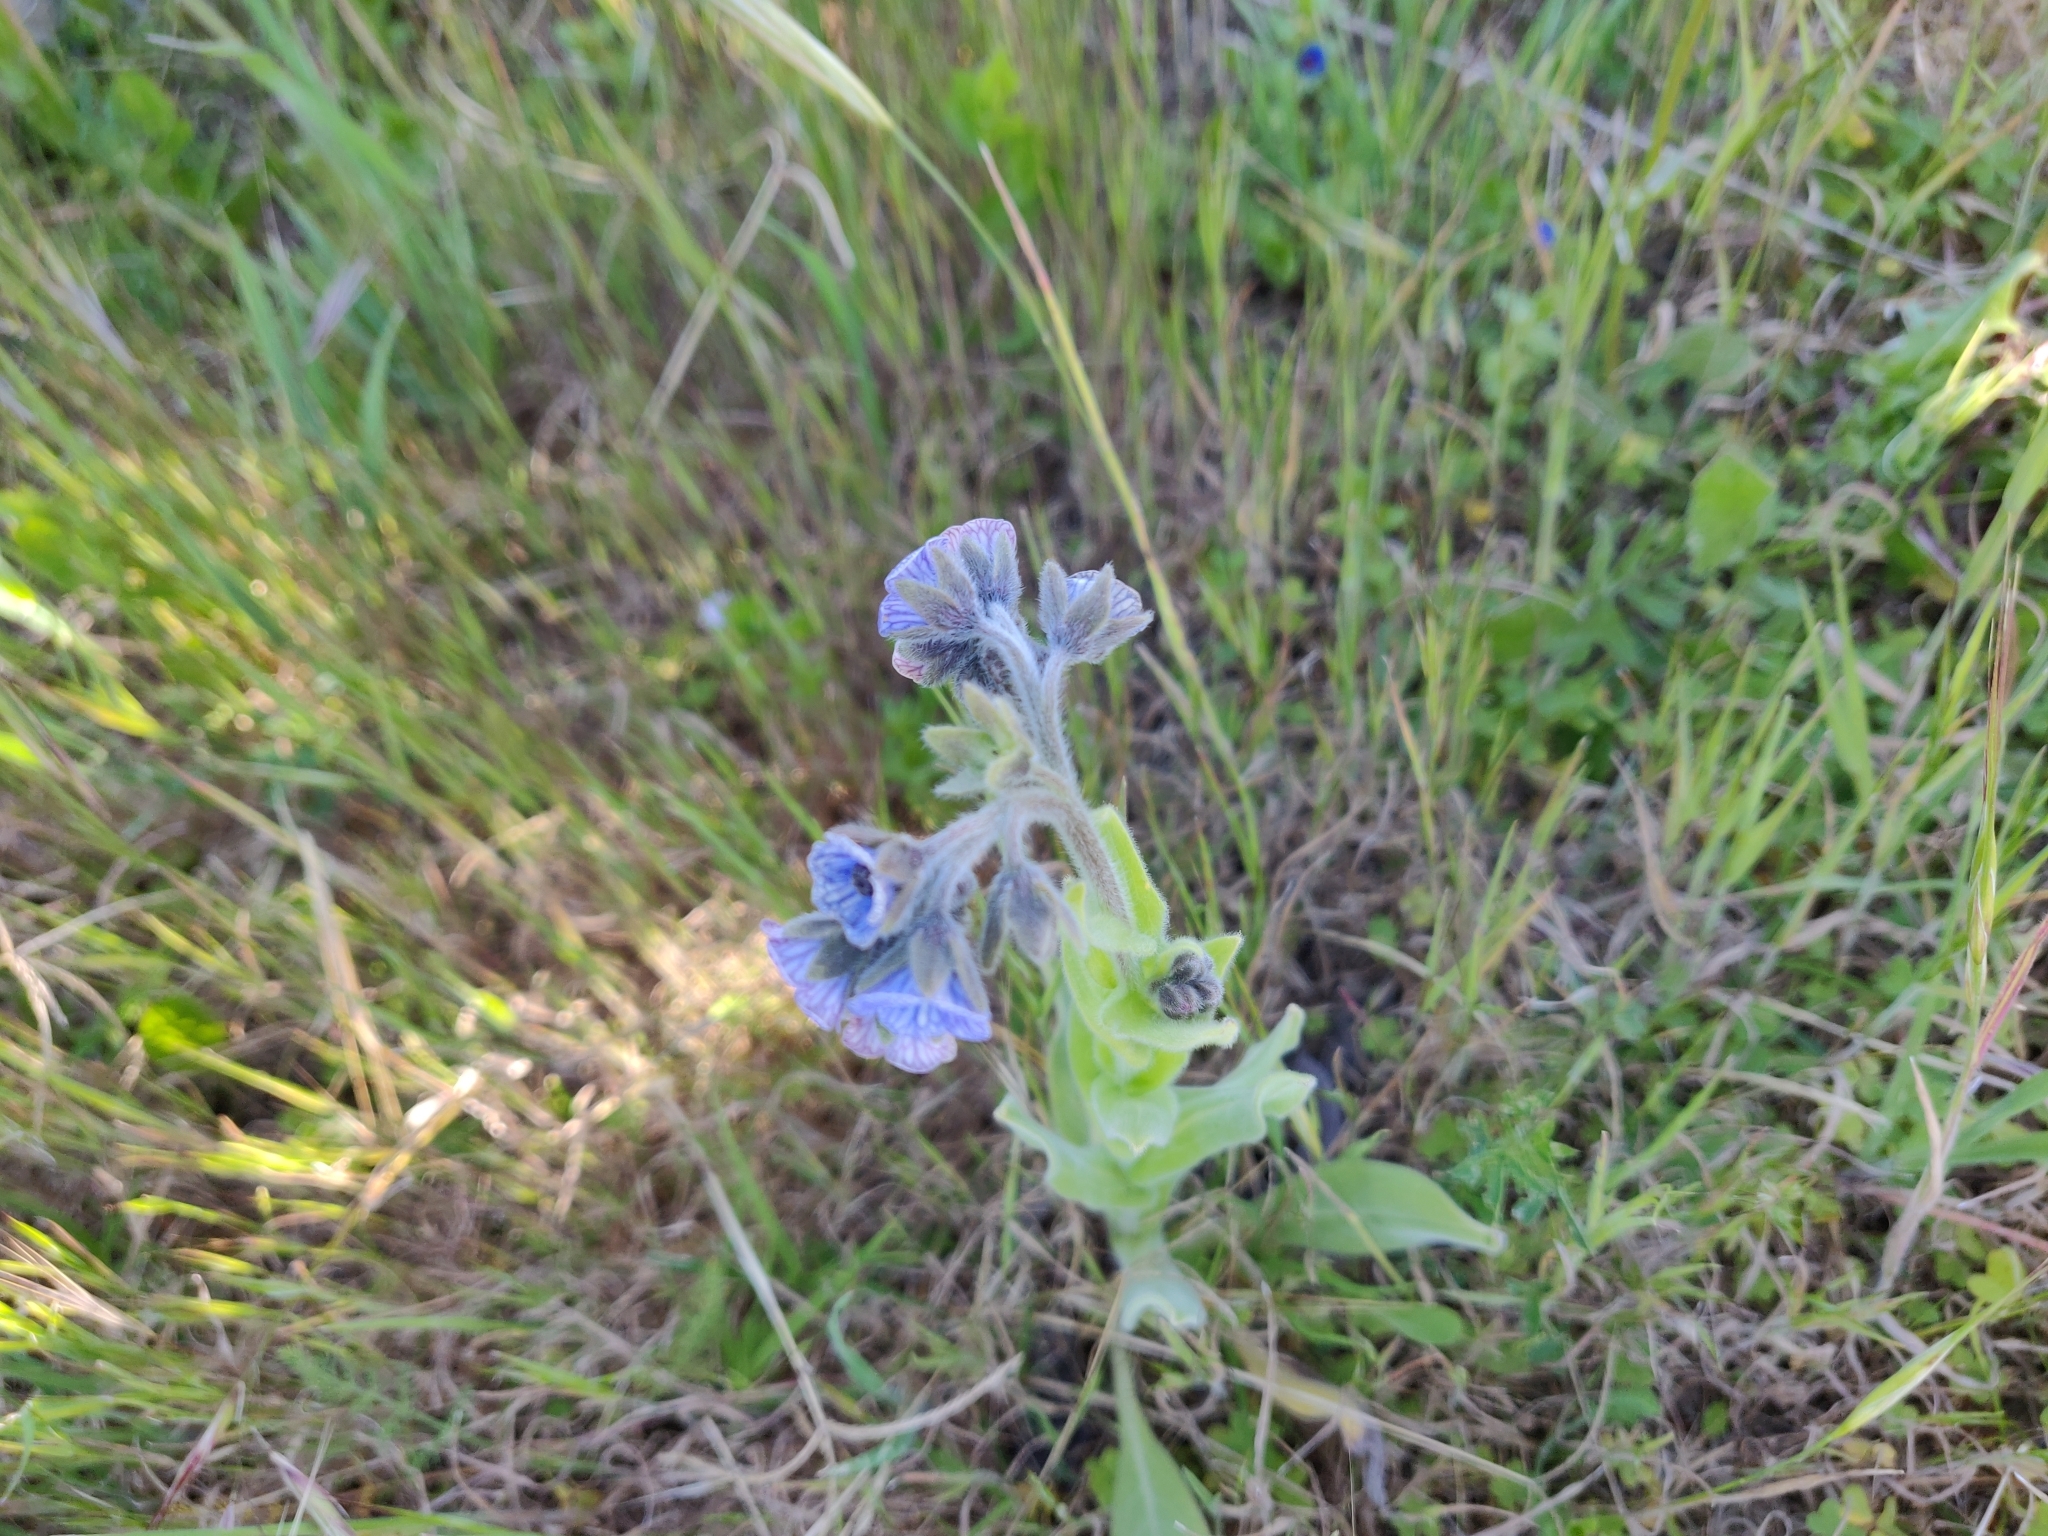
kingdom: Plantae
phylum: Tracheophyta
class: Magnoliopsida
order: Boraginales
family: Boraginaceae
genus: Cynoglossum
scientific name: Cynoglossum creticum
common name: Blue hound's tongue
